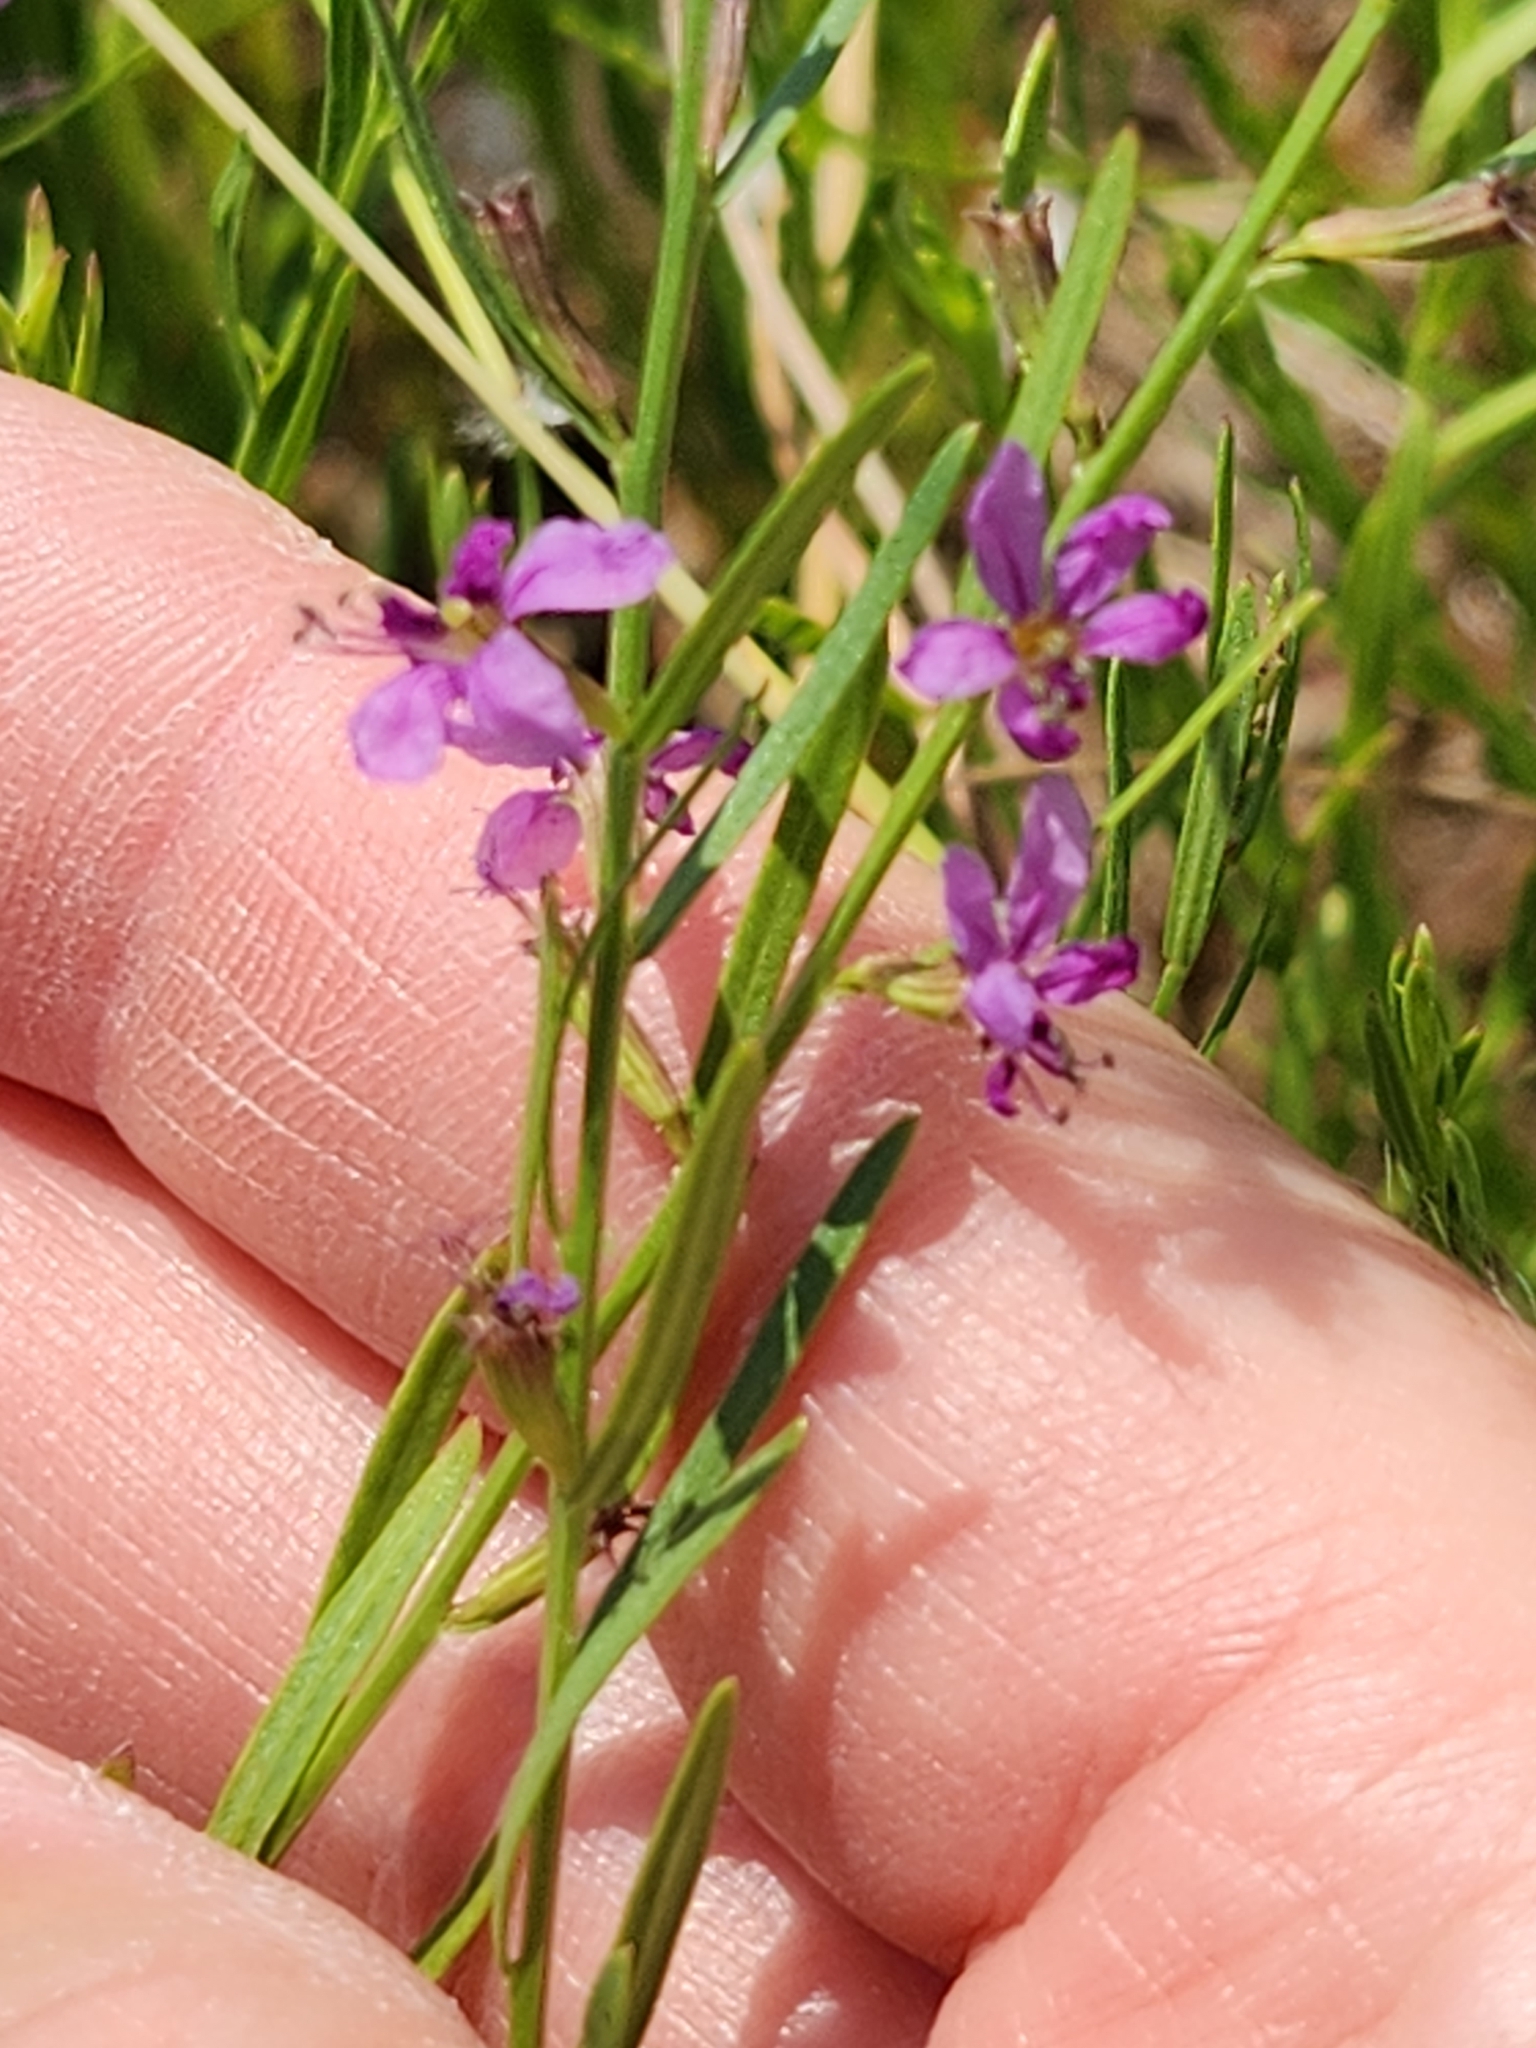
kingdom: Plantae
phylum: Tracheophyta
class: Magnoliopsida
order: Myrtales
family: Lythraceae
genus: Lythrum
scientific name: Lythrum californicum
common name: California loosestrife
